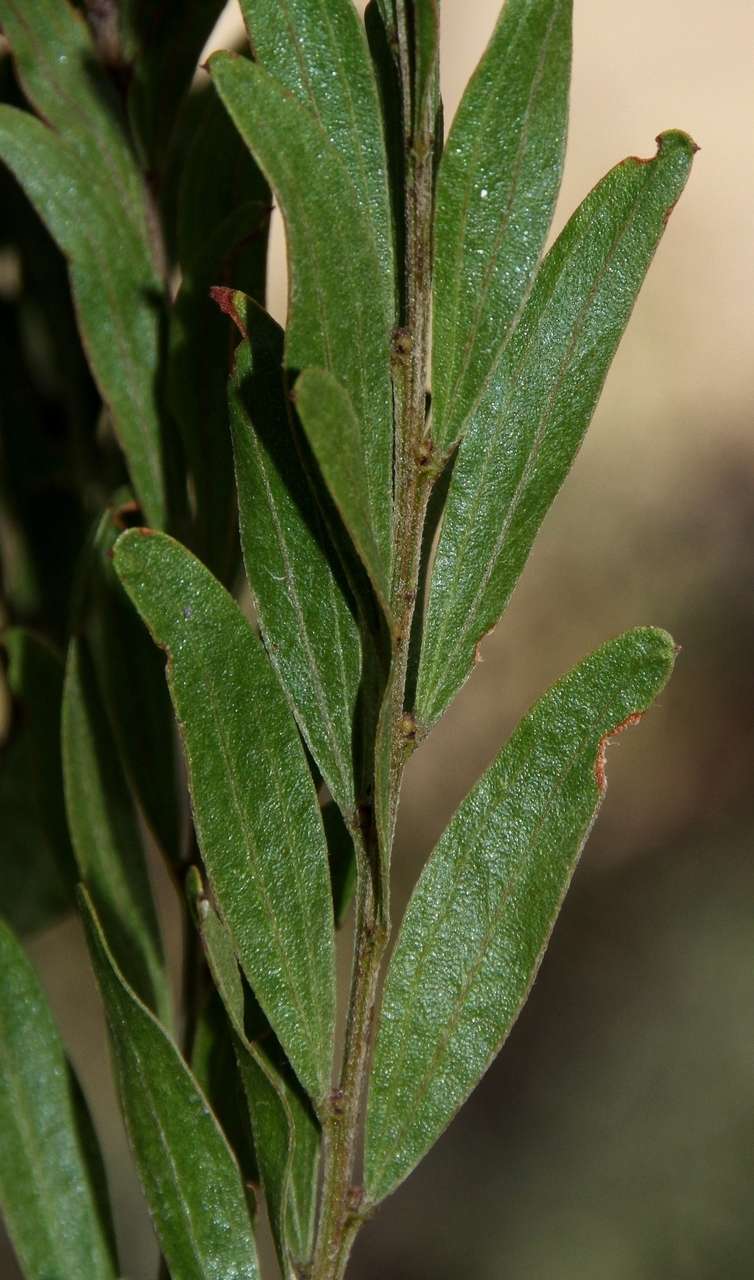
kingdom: Plantae
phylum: Tracheophyta
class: Magnoliopsida
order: Fabales
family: Fabaceae
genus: Acacia
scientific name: Acacia rostriformis
